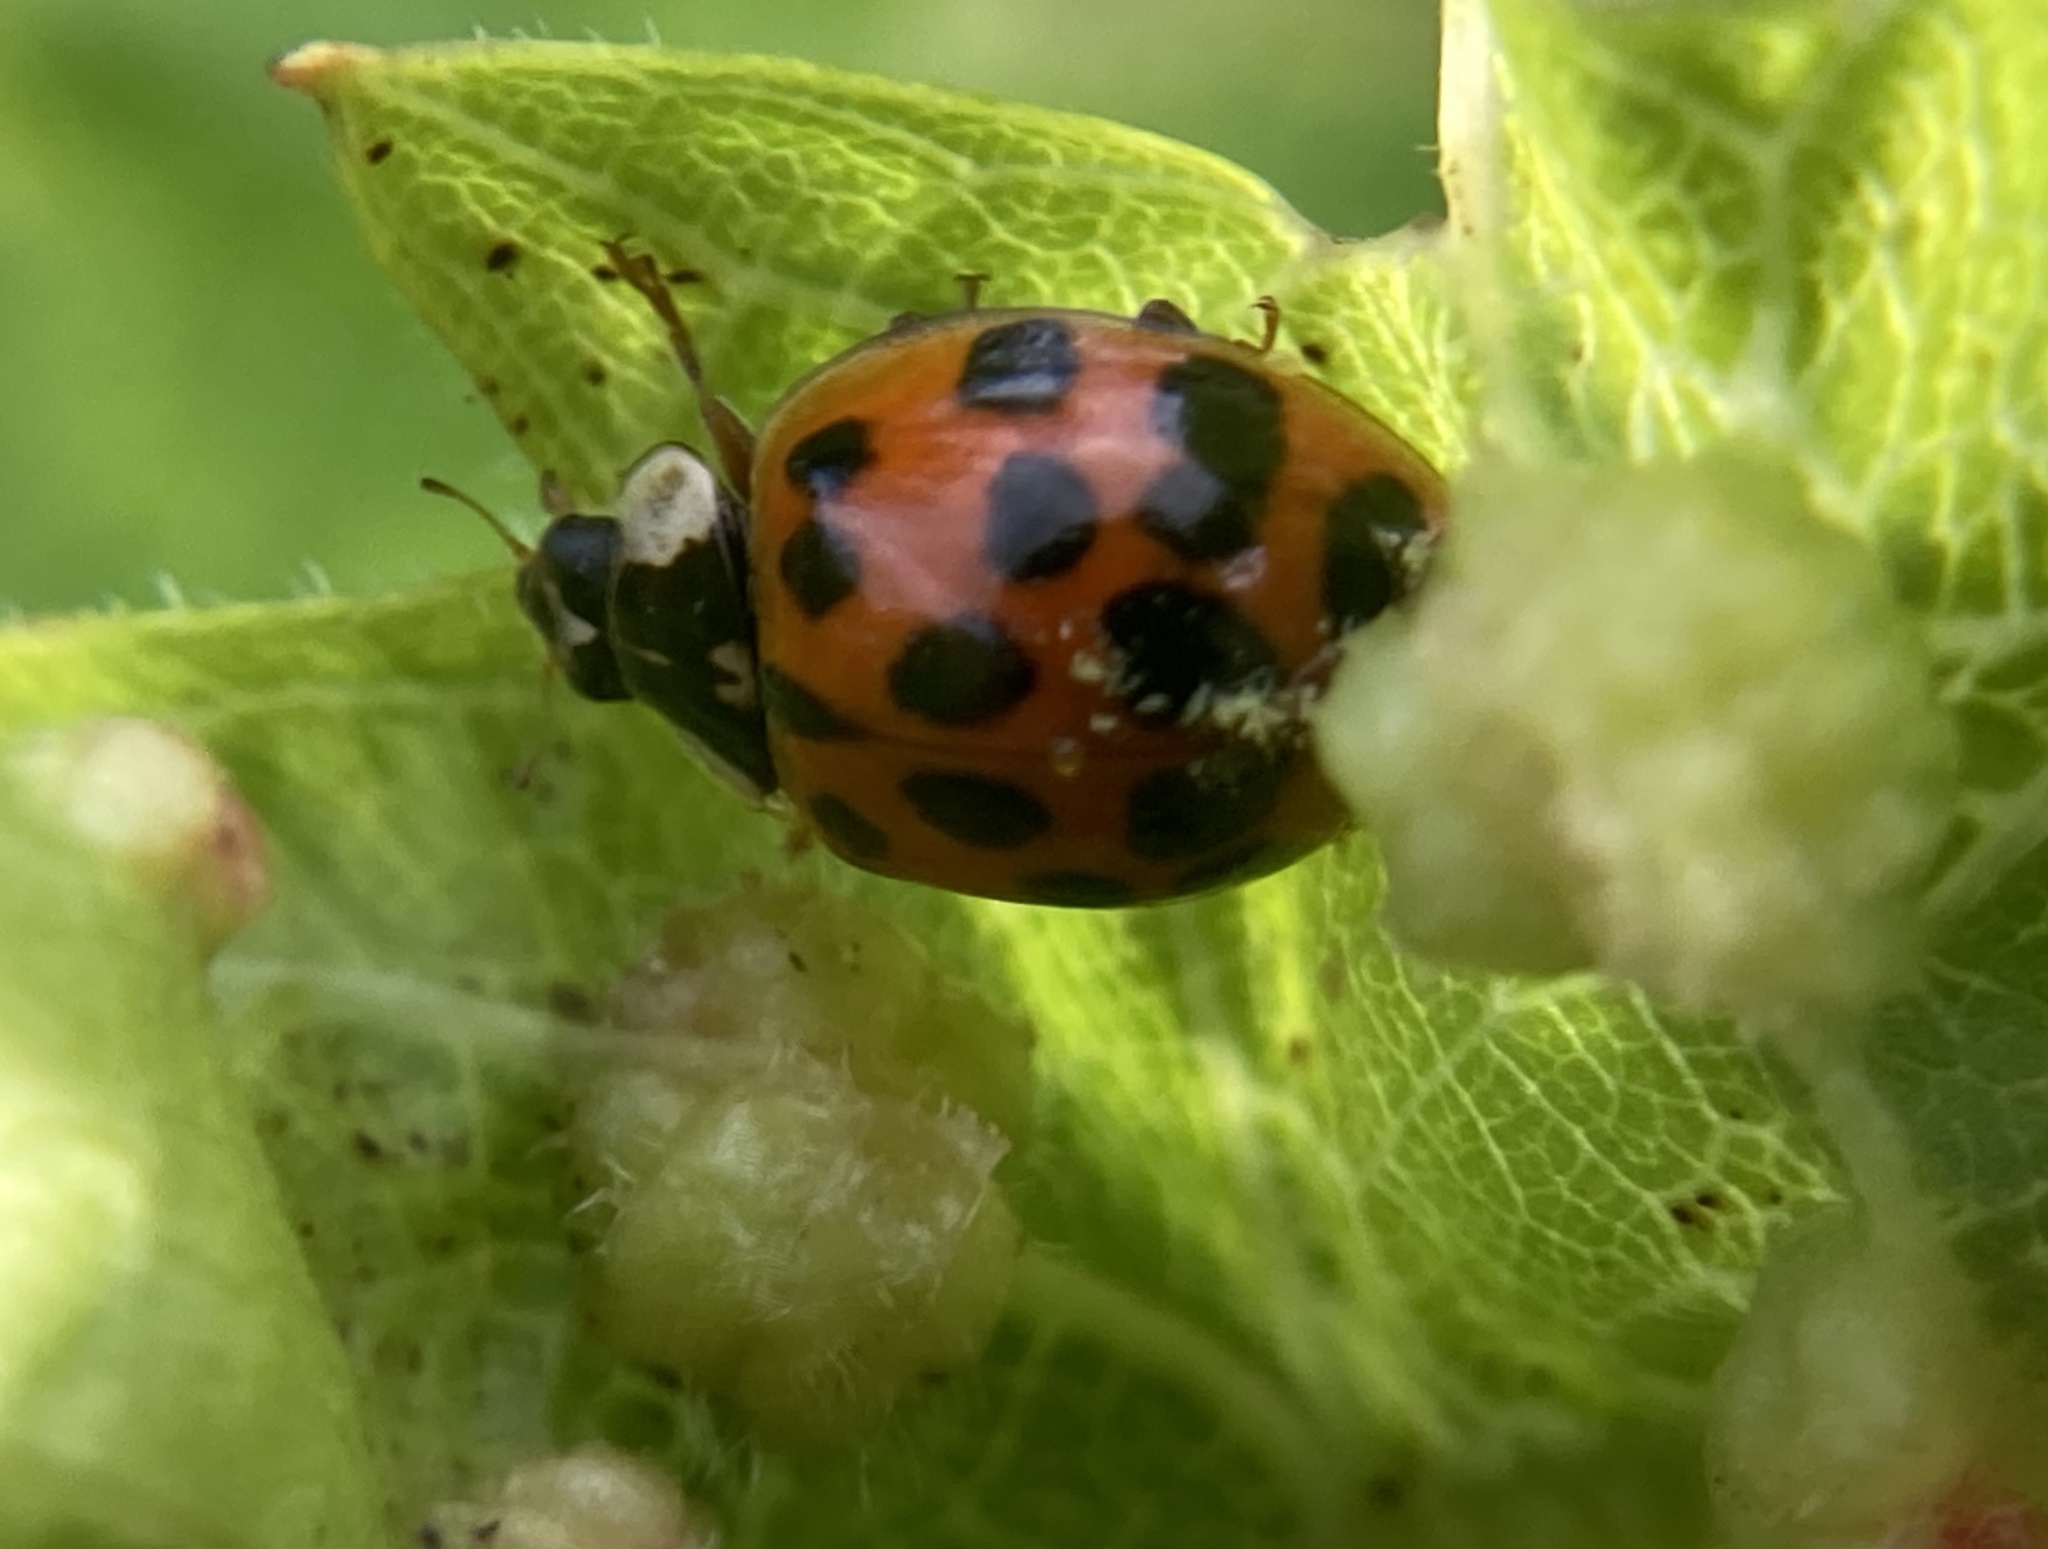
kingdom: Animalia
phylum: Arthropoda
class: Insecta
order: Coleoptera
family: Coccinellidae
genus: Harmonia
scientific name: Harmonia axyridis
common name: Harlequin ladybird
